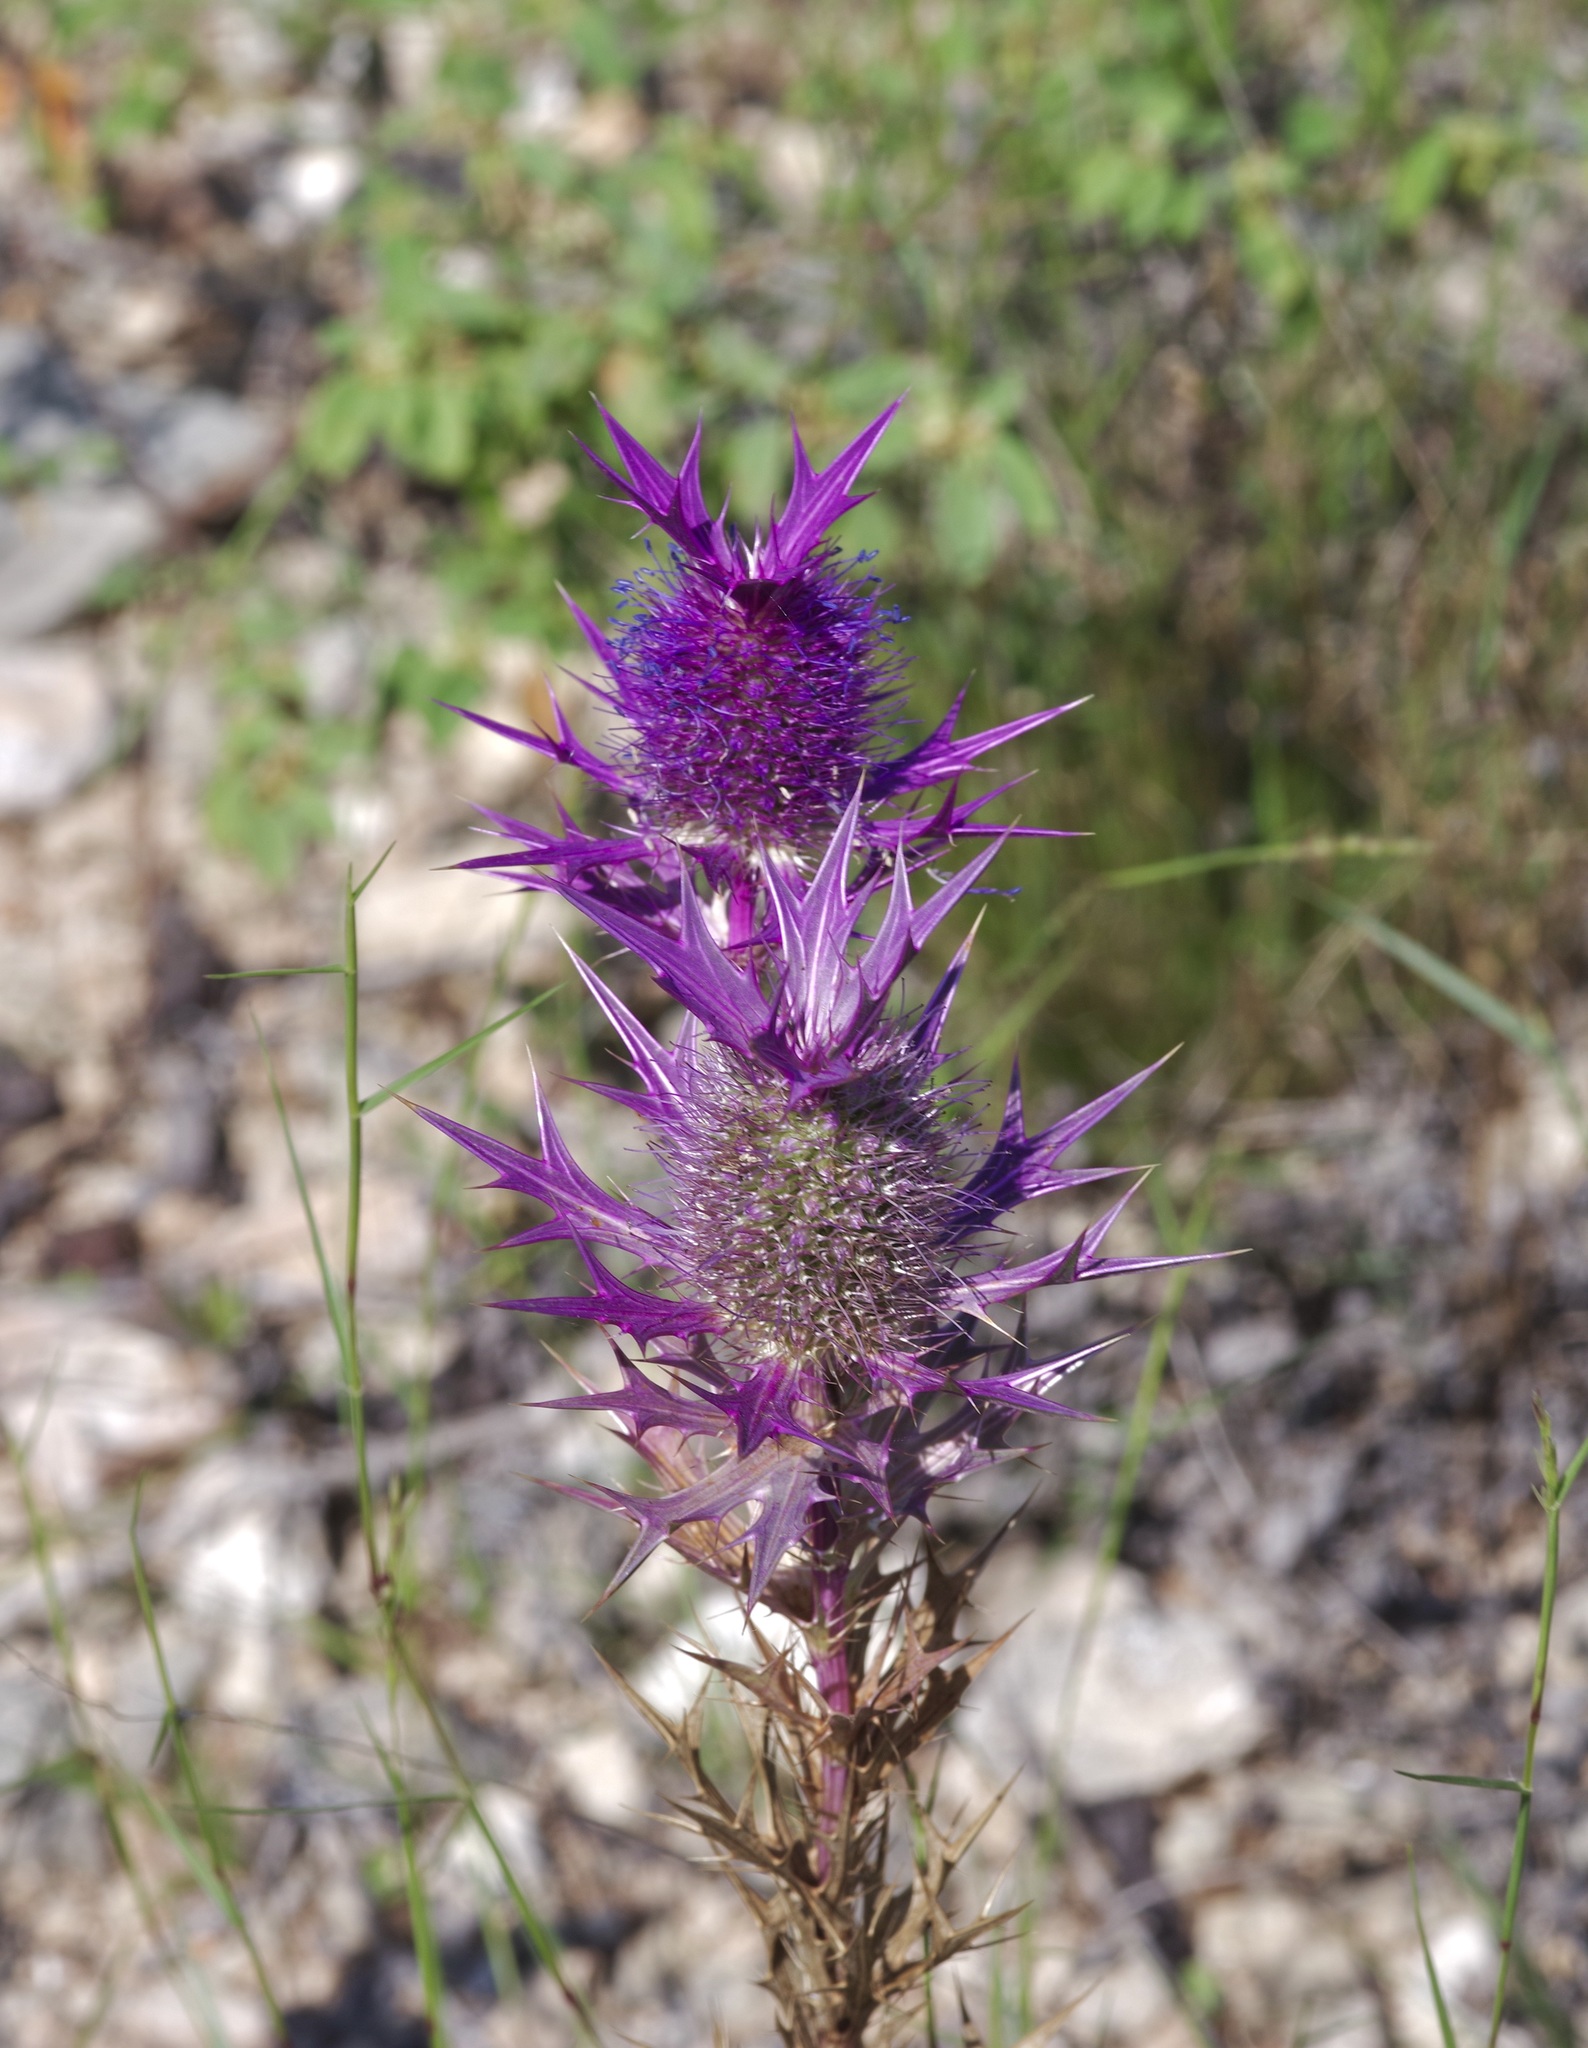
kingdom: Plantae
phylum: Tracheophyta
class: Magnoliopsida
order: Apiales
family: Apiaceae
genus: Eryngium
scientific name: Eryngium leavenworthii
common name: Leavenworth's eryngo
